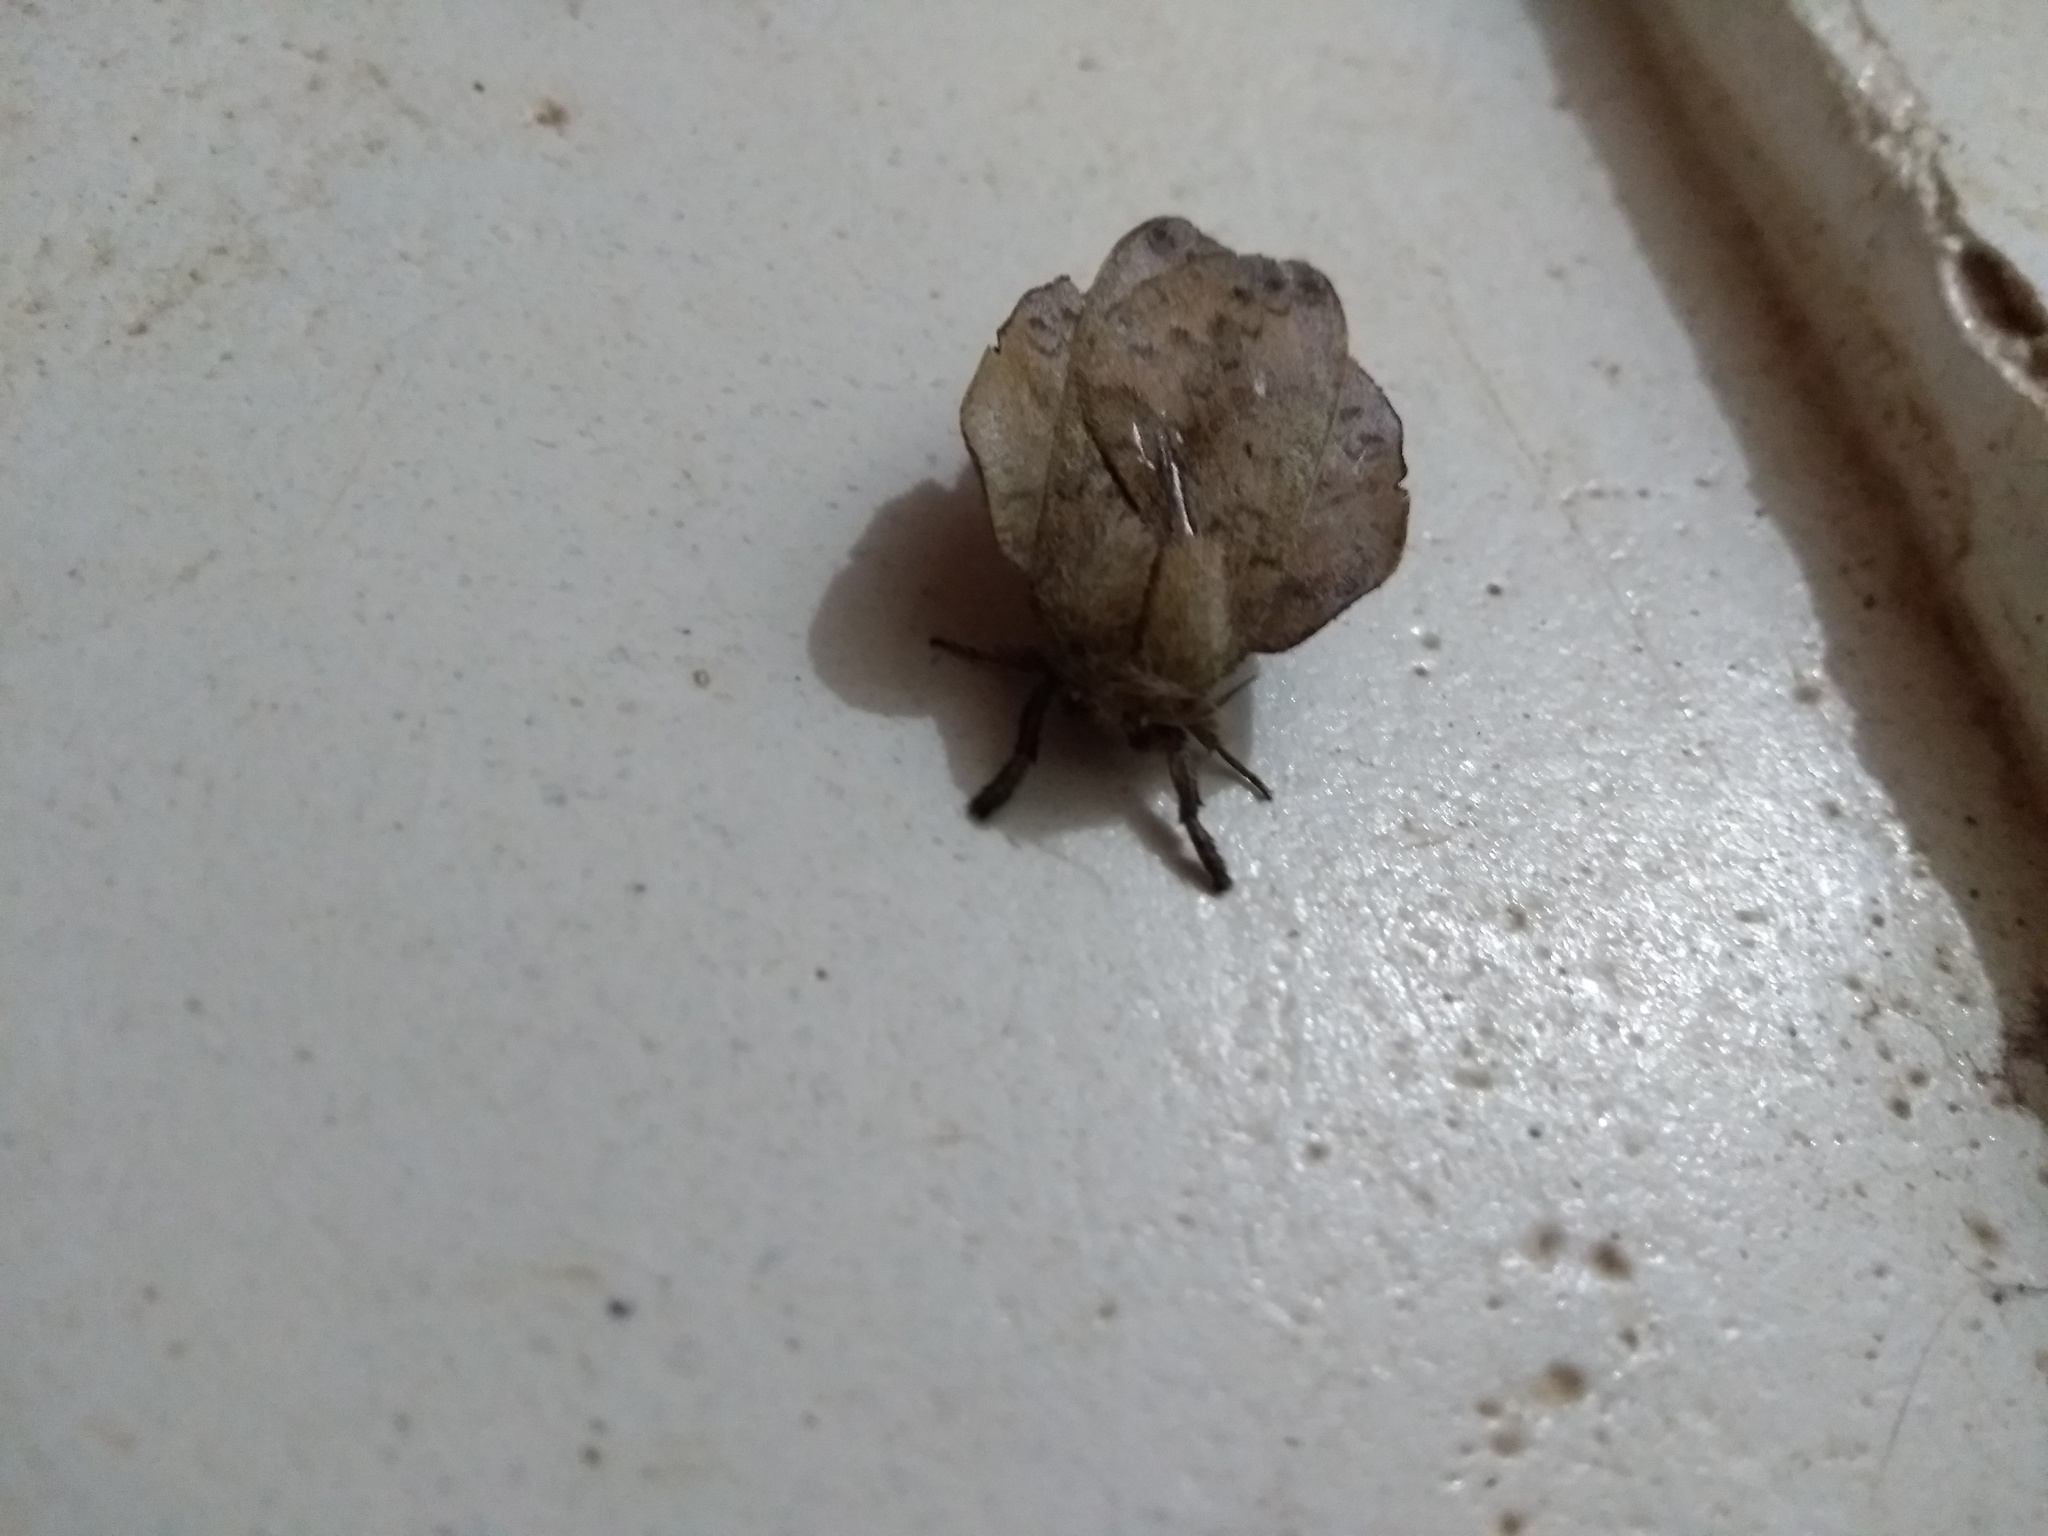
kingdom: Animalia
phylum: Arthropoda
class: Insecta
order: Lepidoptera
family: Saturniidae
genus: Travassosula
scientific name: Travassosula subfumata
